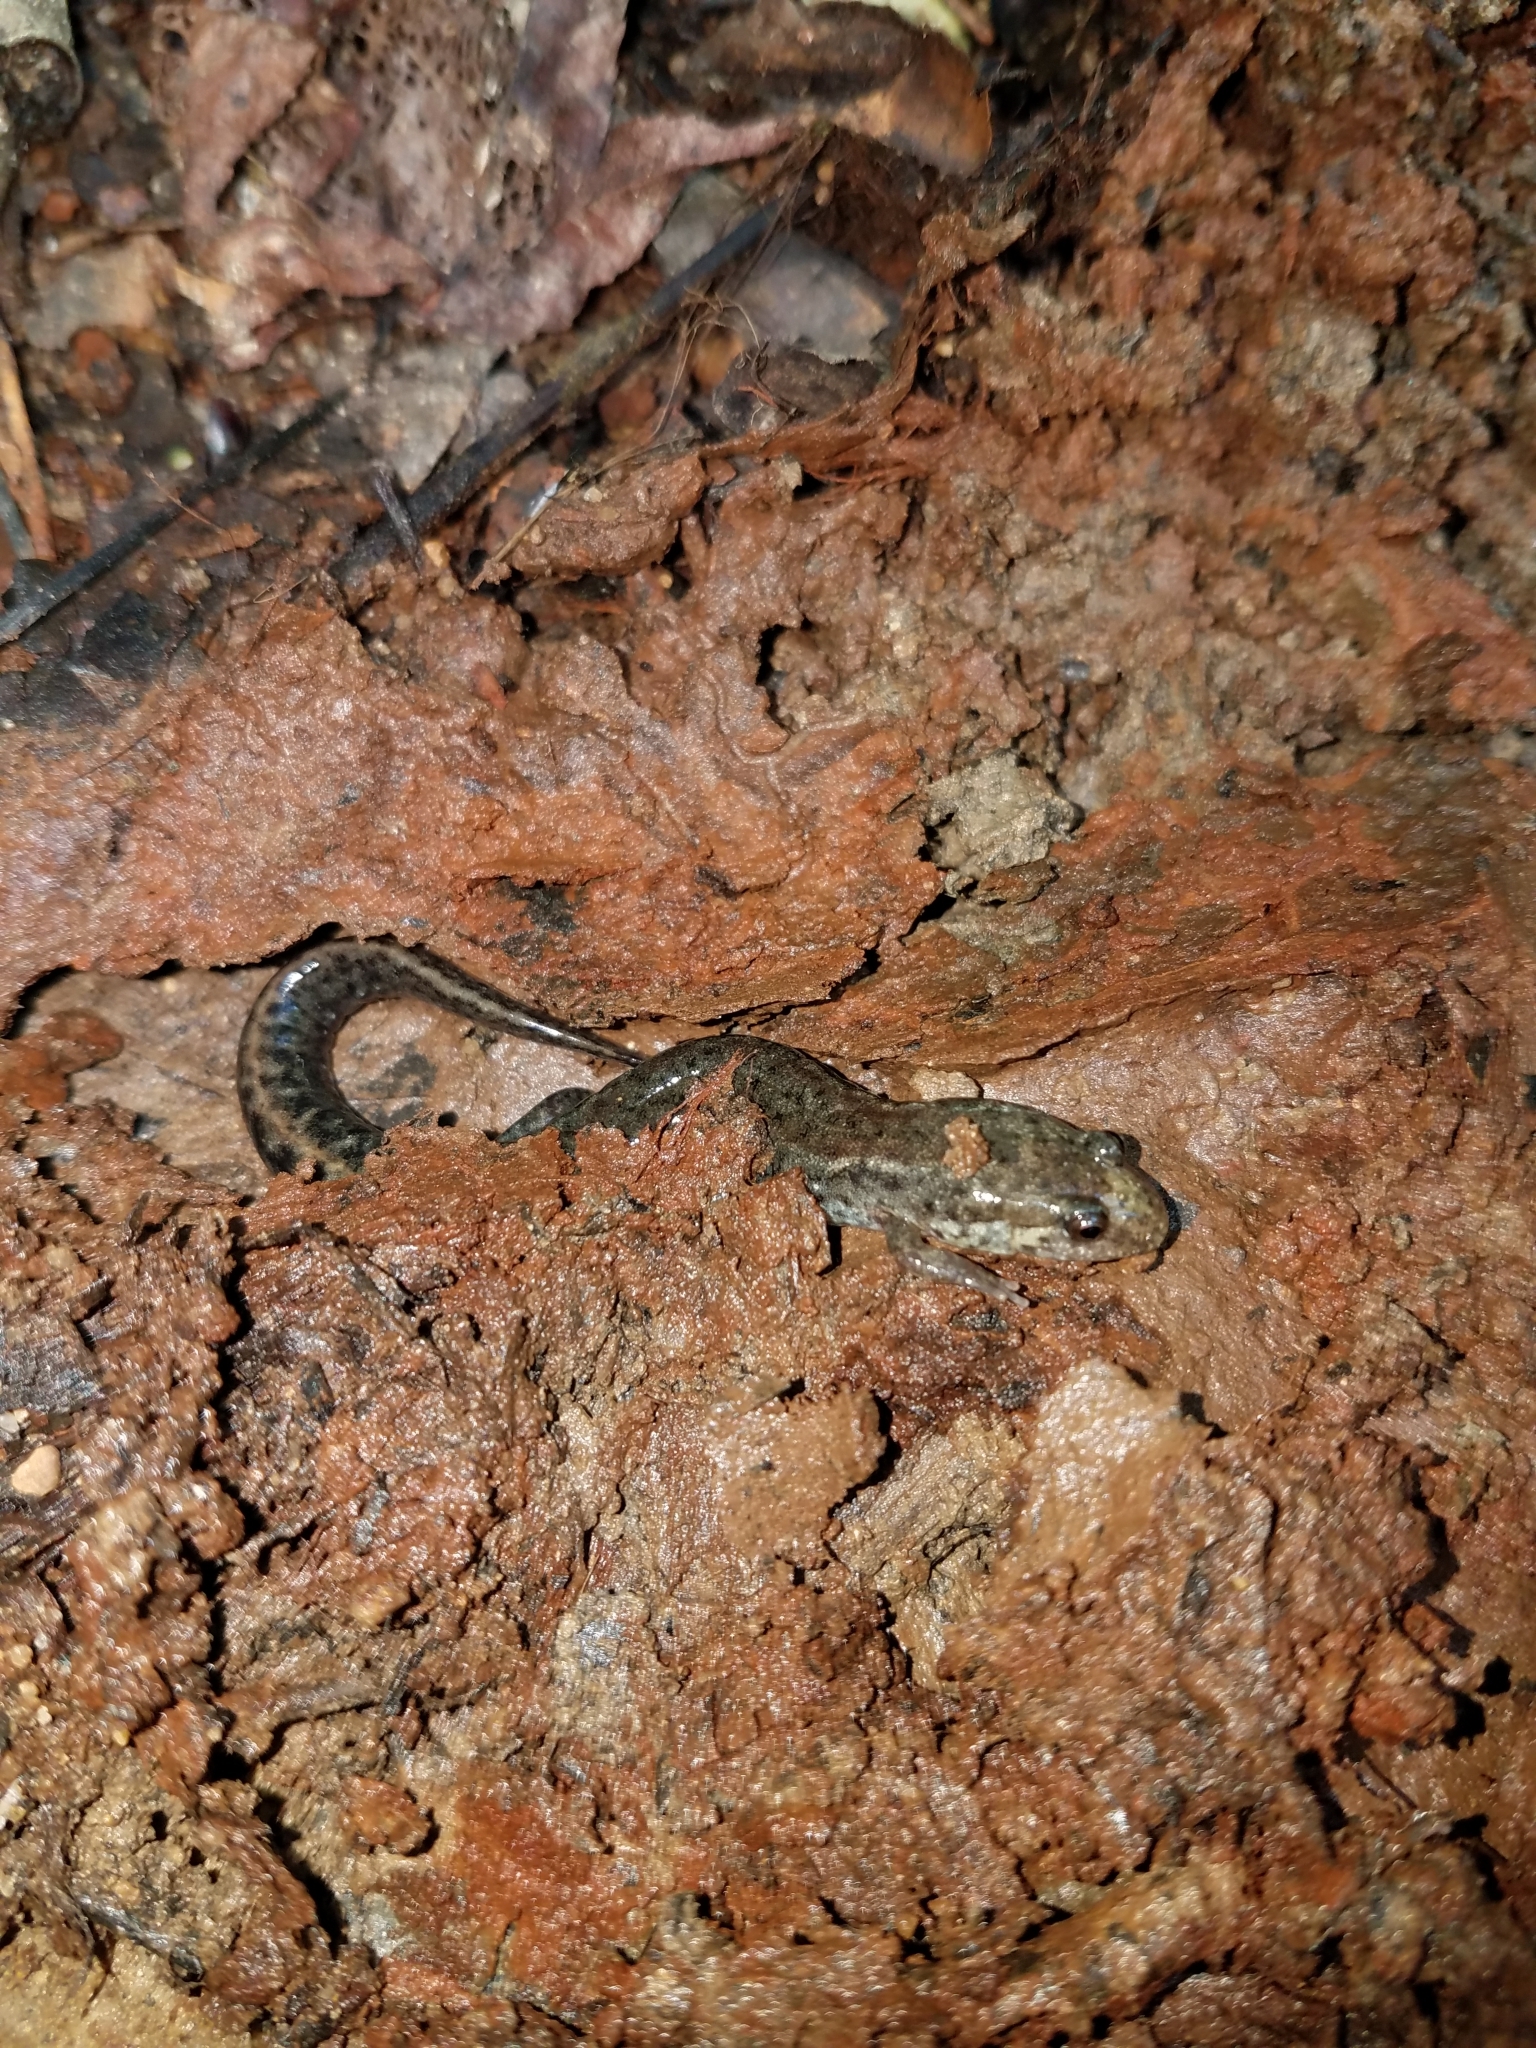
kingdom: Animalia
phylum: Chordata
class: Amphibia
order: Caudata
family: Plethodontidae
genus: Desmognathus
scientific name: Desmognathus
